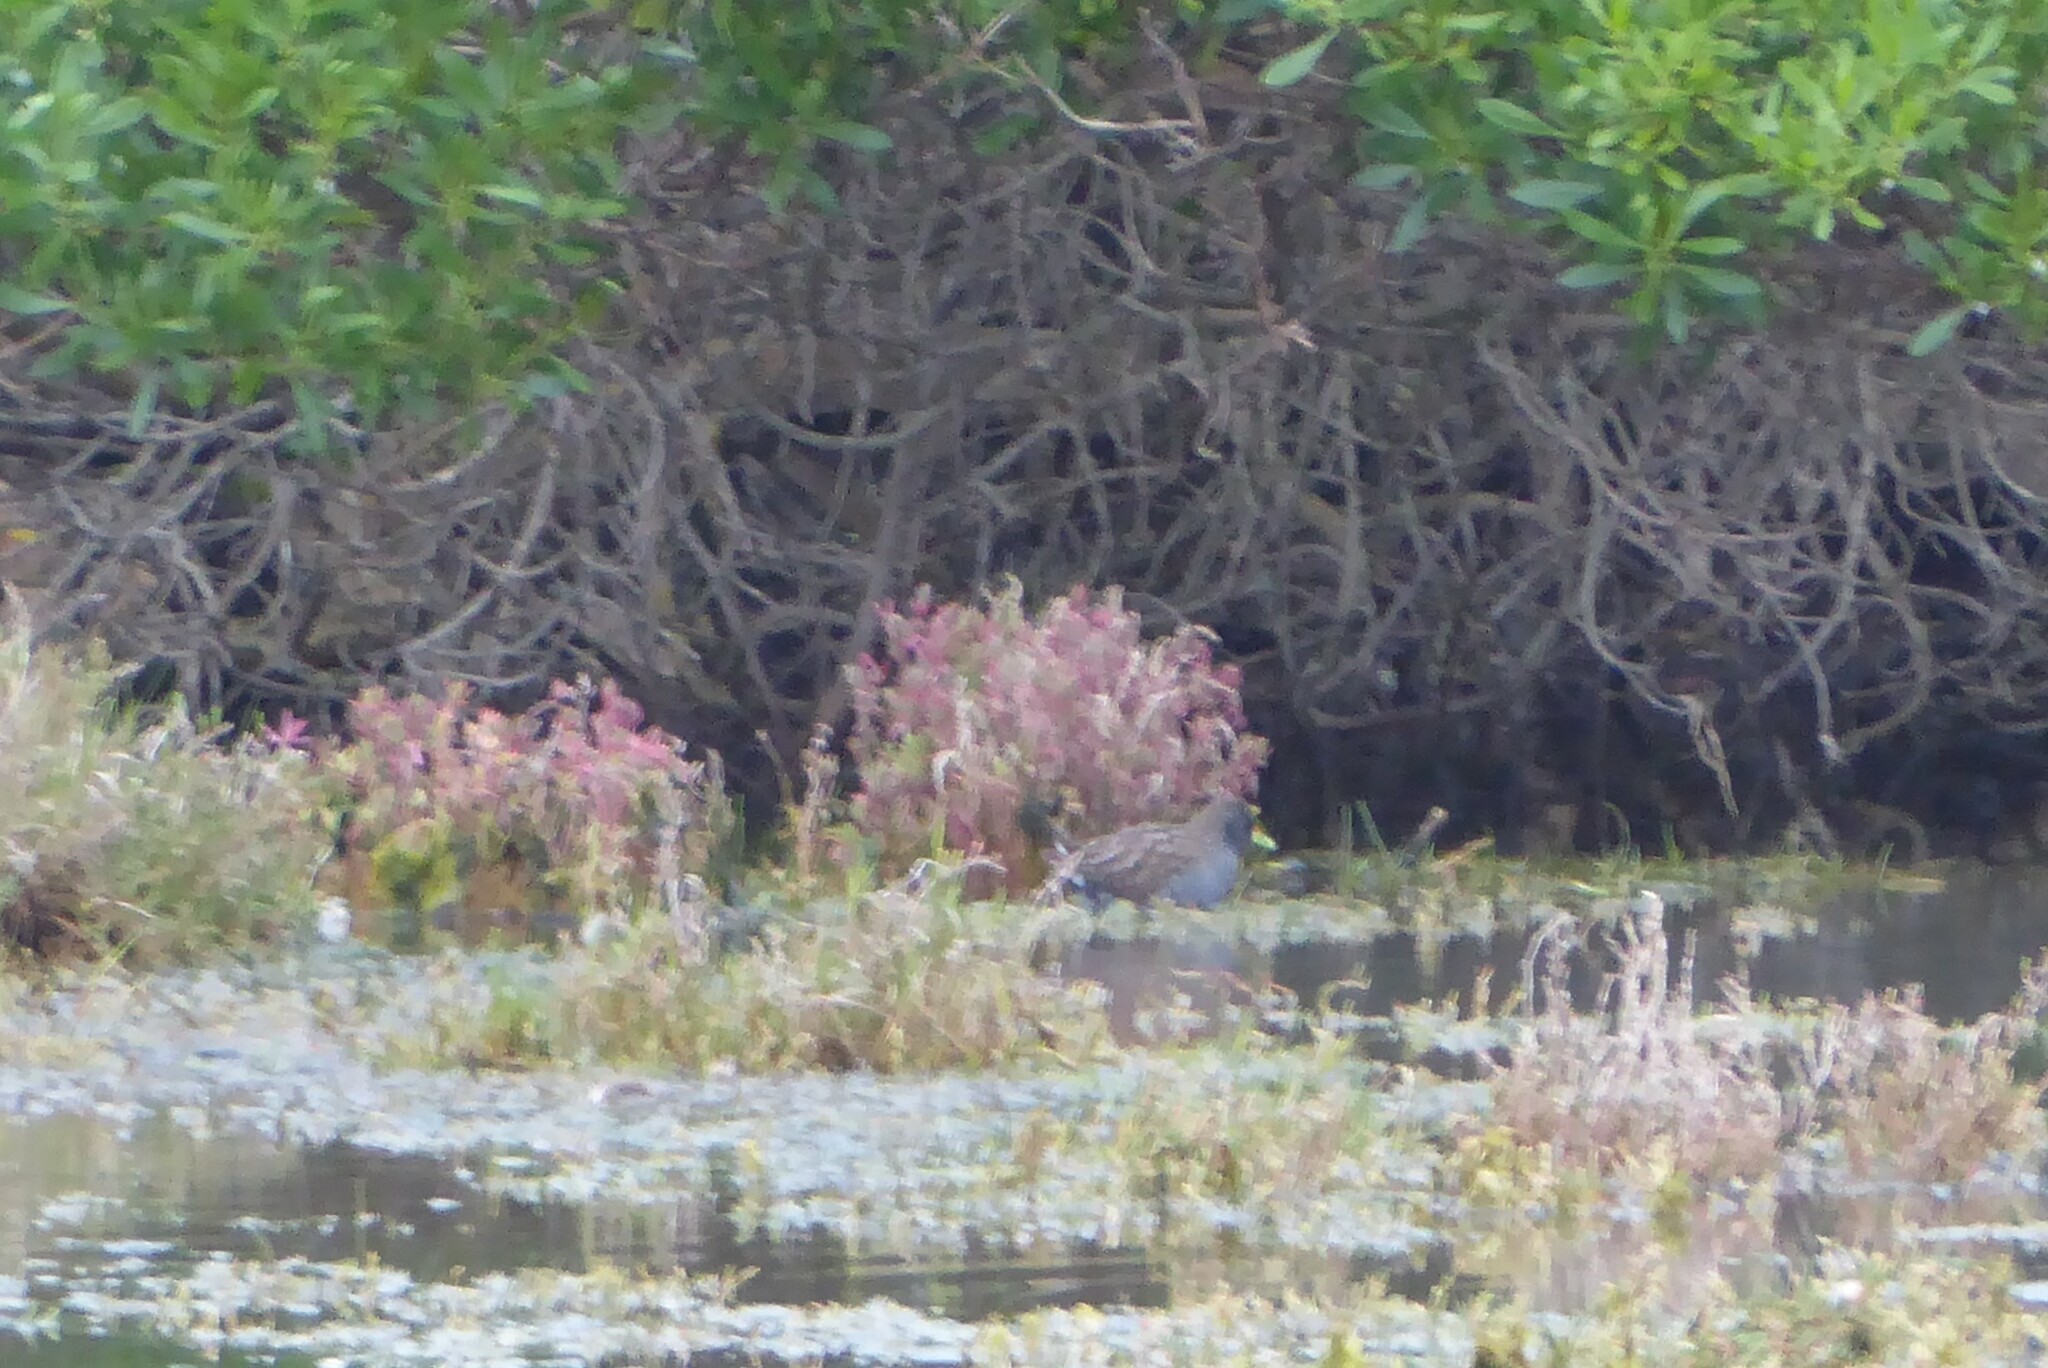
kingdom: Animalia
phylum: Chordata
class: Aves
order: Gruiformes
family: Rallidae
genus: Porzana
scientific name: Porzana fluminea
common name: Australian crake
